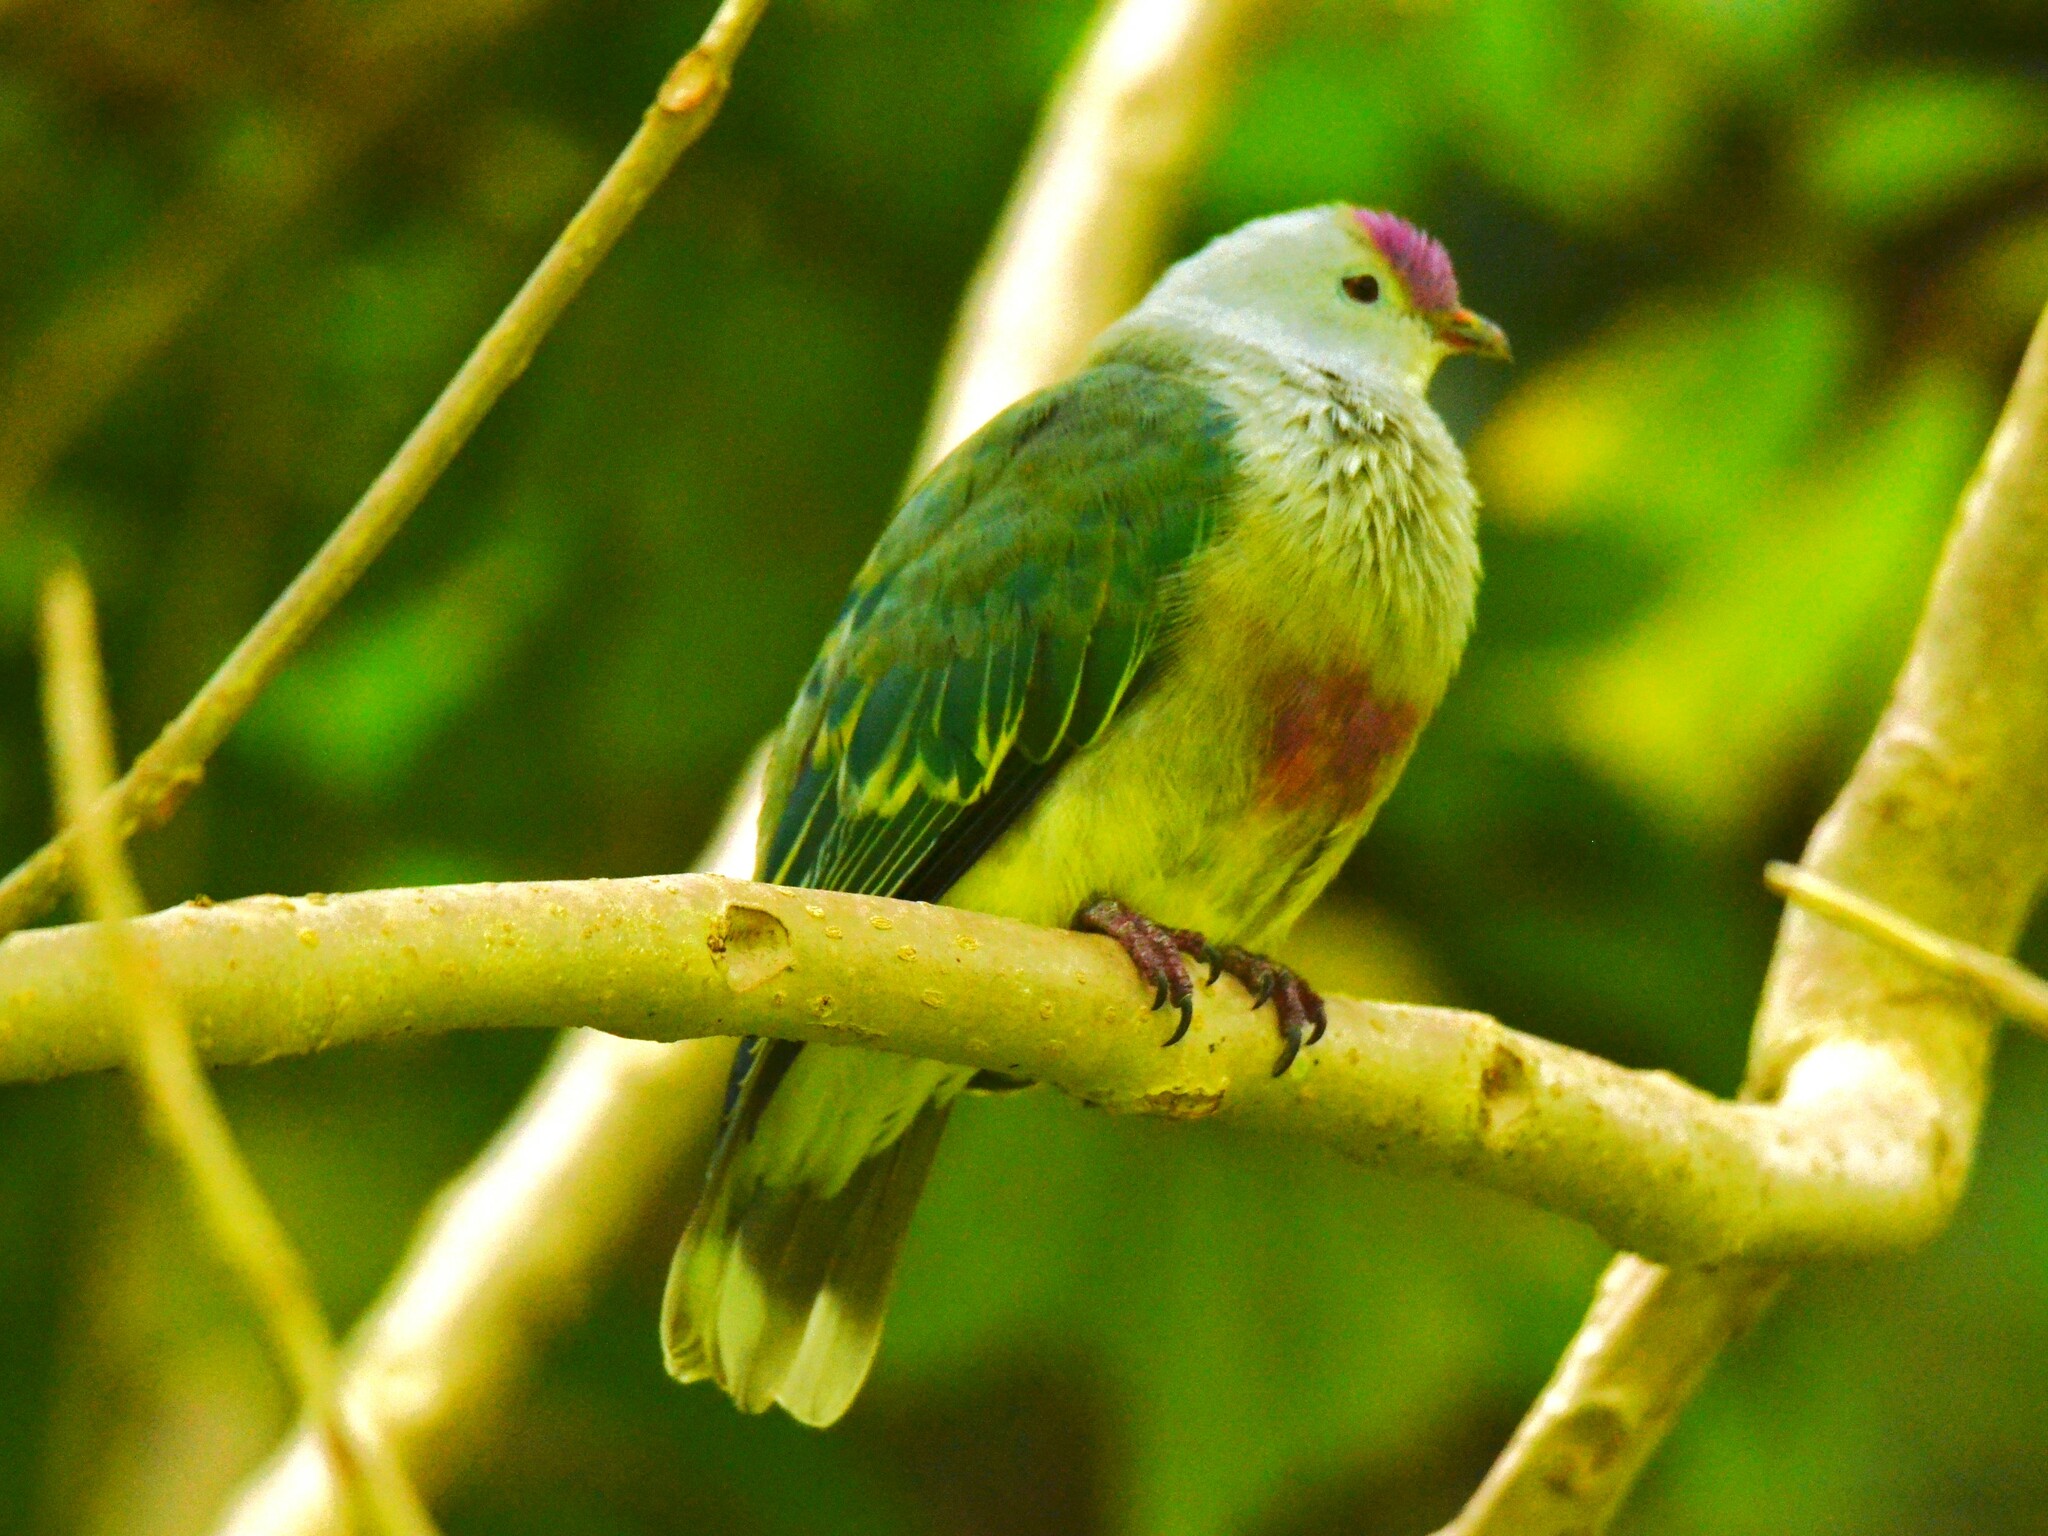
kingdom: Animalia
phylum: Chordata
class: Aves
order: Columbiformes
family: Columbidae
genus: Ptilinopus
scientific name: Ptilinopus rarotongensis
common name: Lilac-crowned fruit dove
